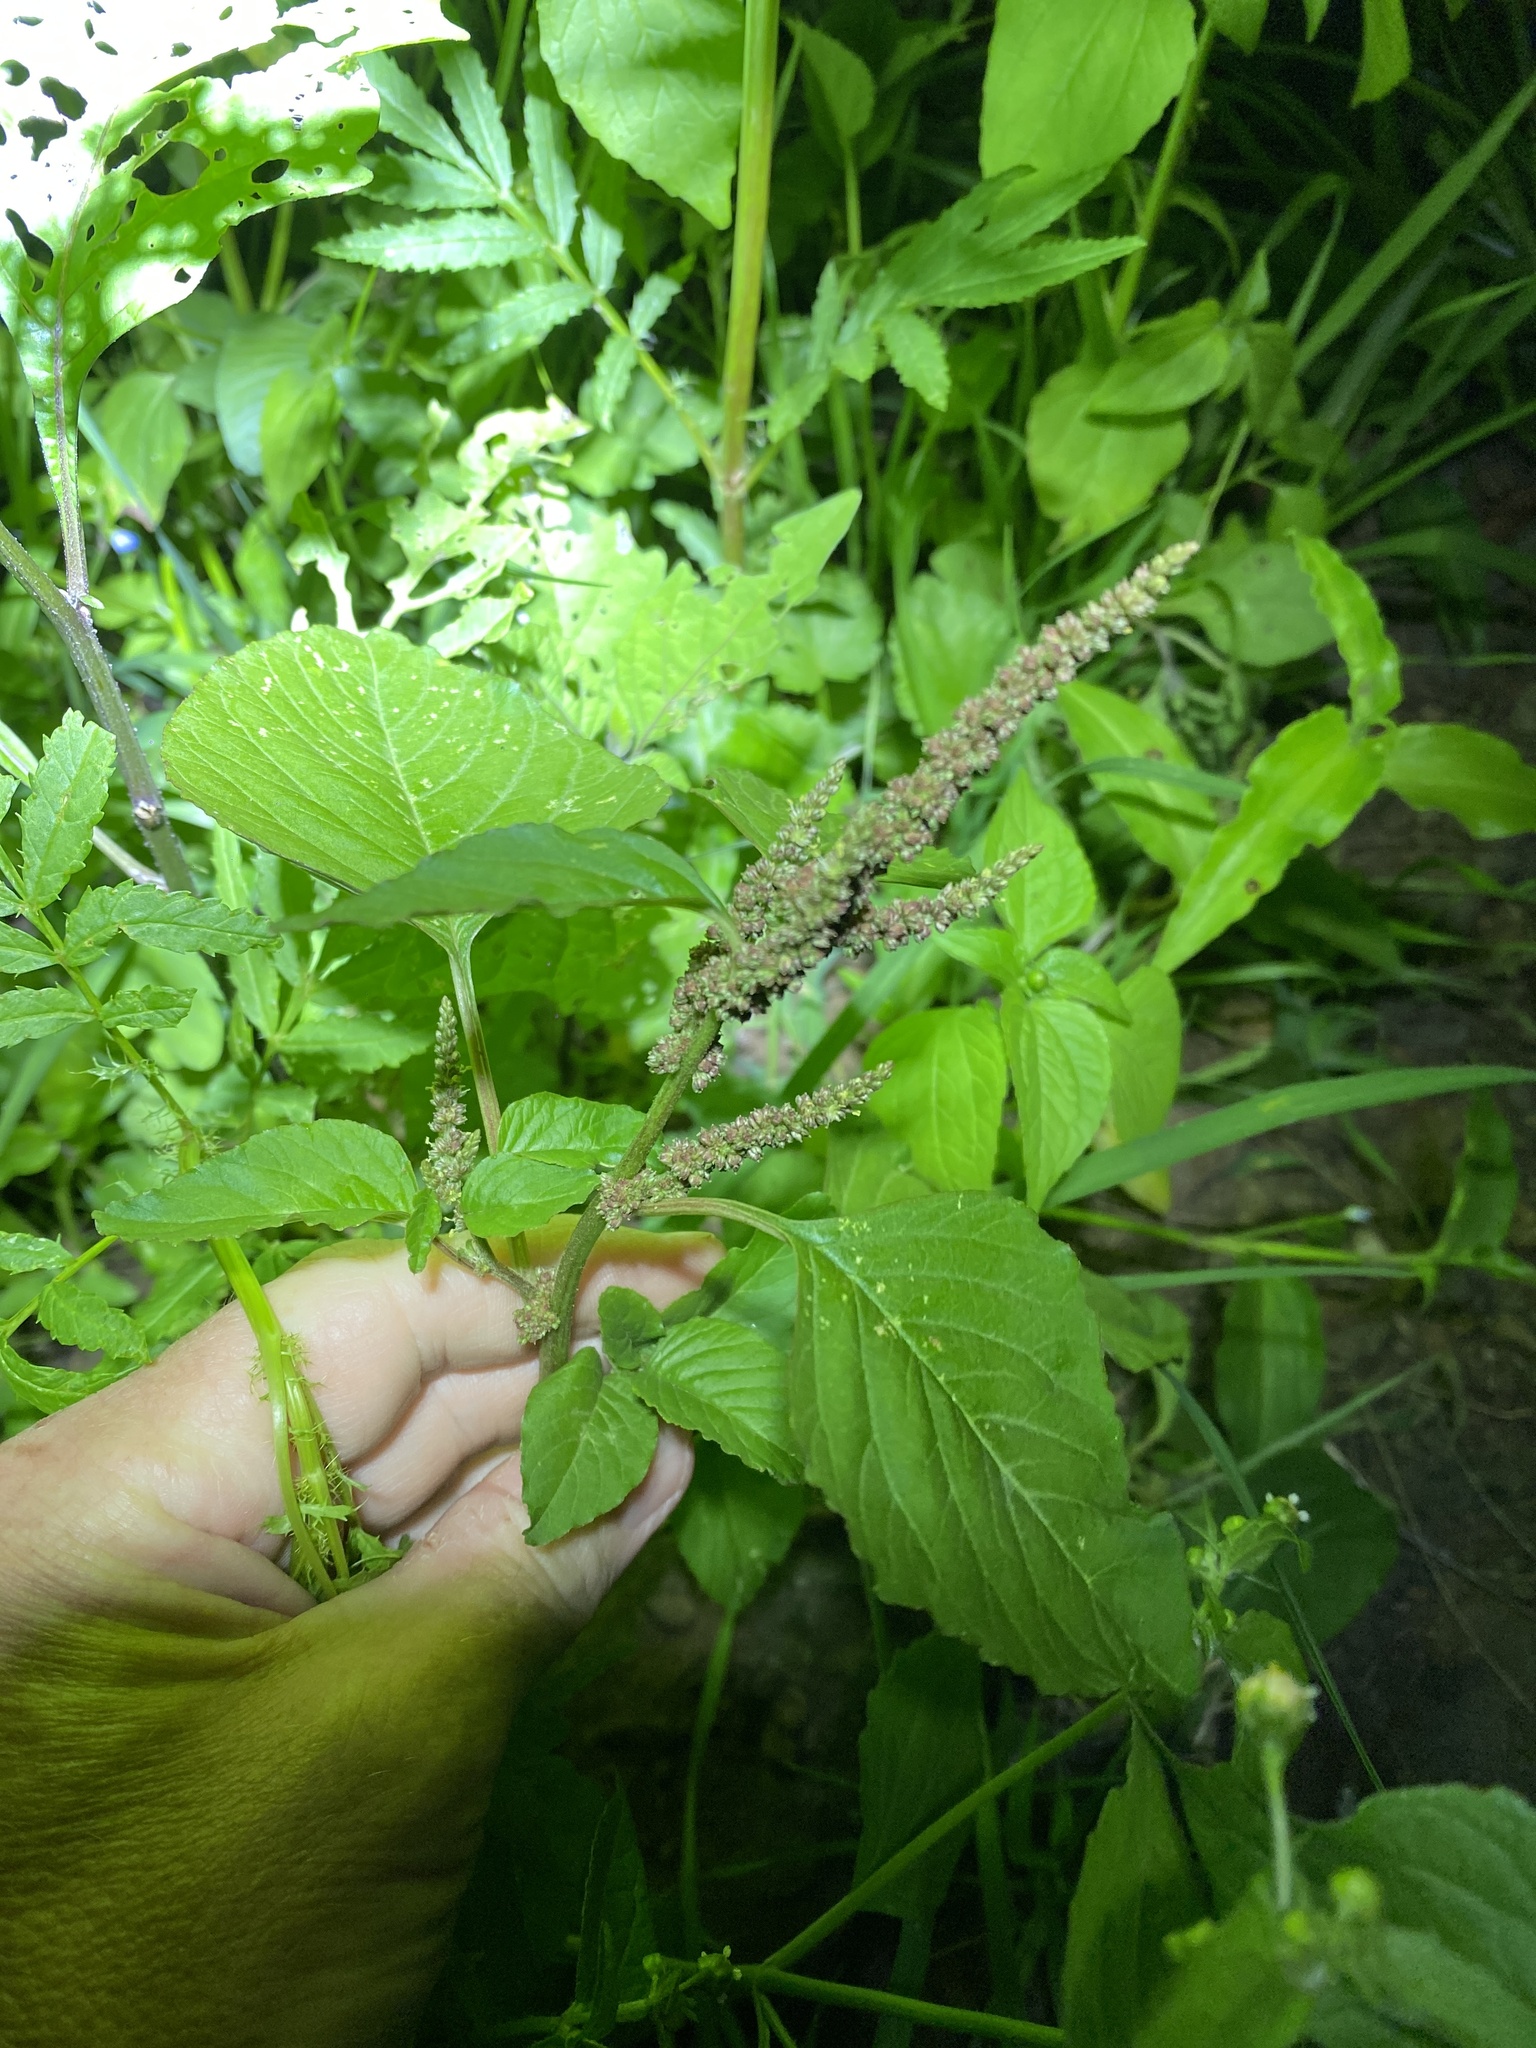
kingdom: Plantae
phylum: Tracheophyta
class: Magnoliopsida
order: Caryophyllales
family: Amaranthaceae
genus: Amaranthus
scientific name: Amaranthus viridis
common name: Slender amaranth
